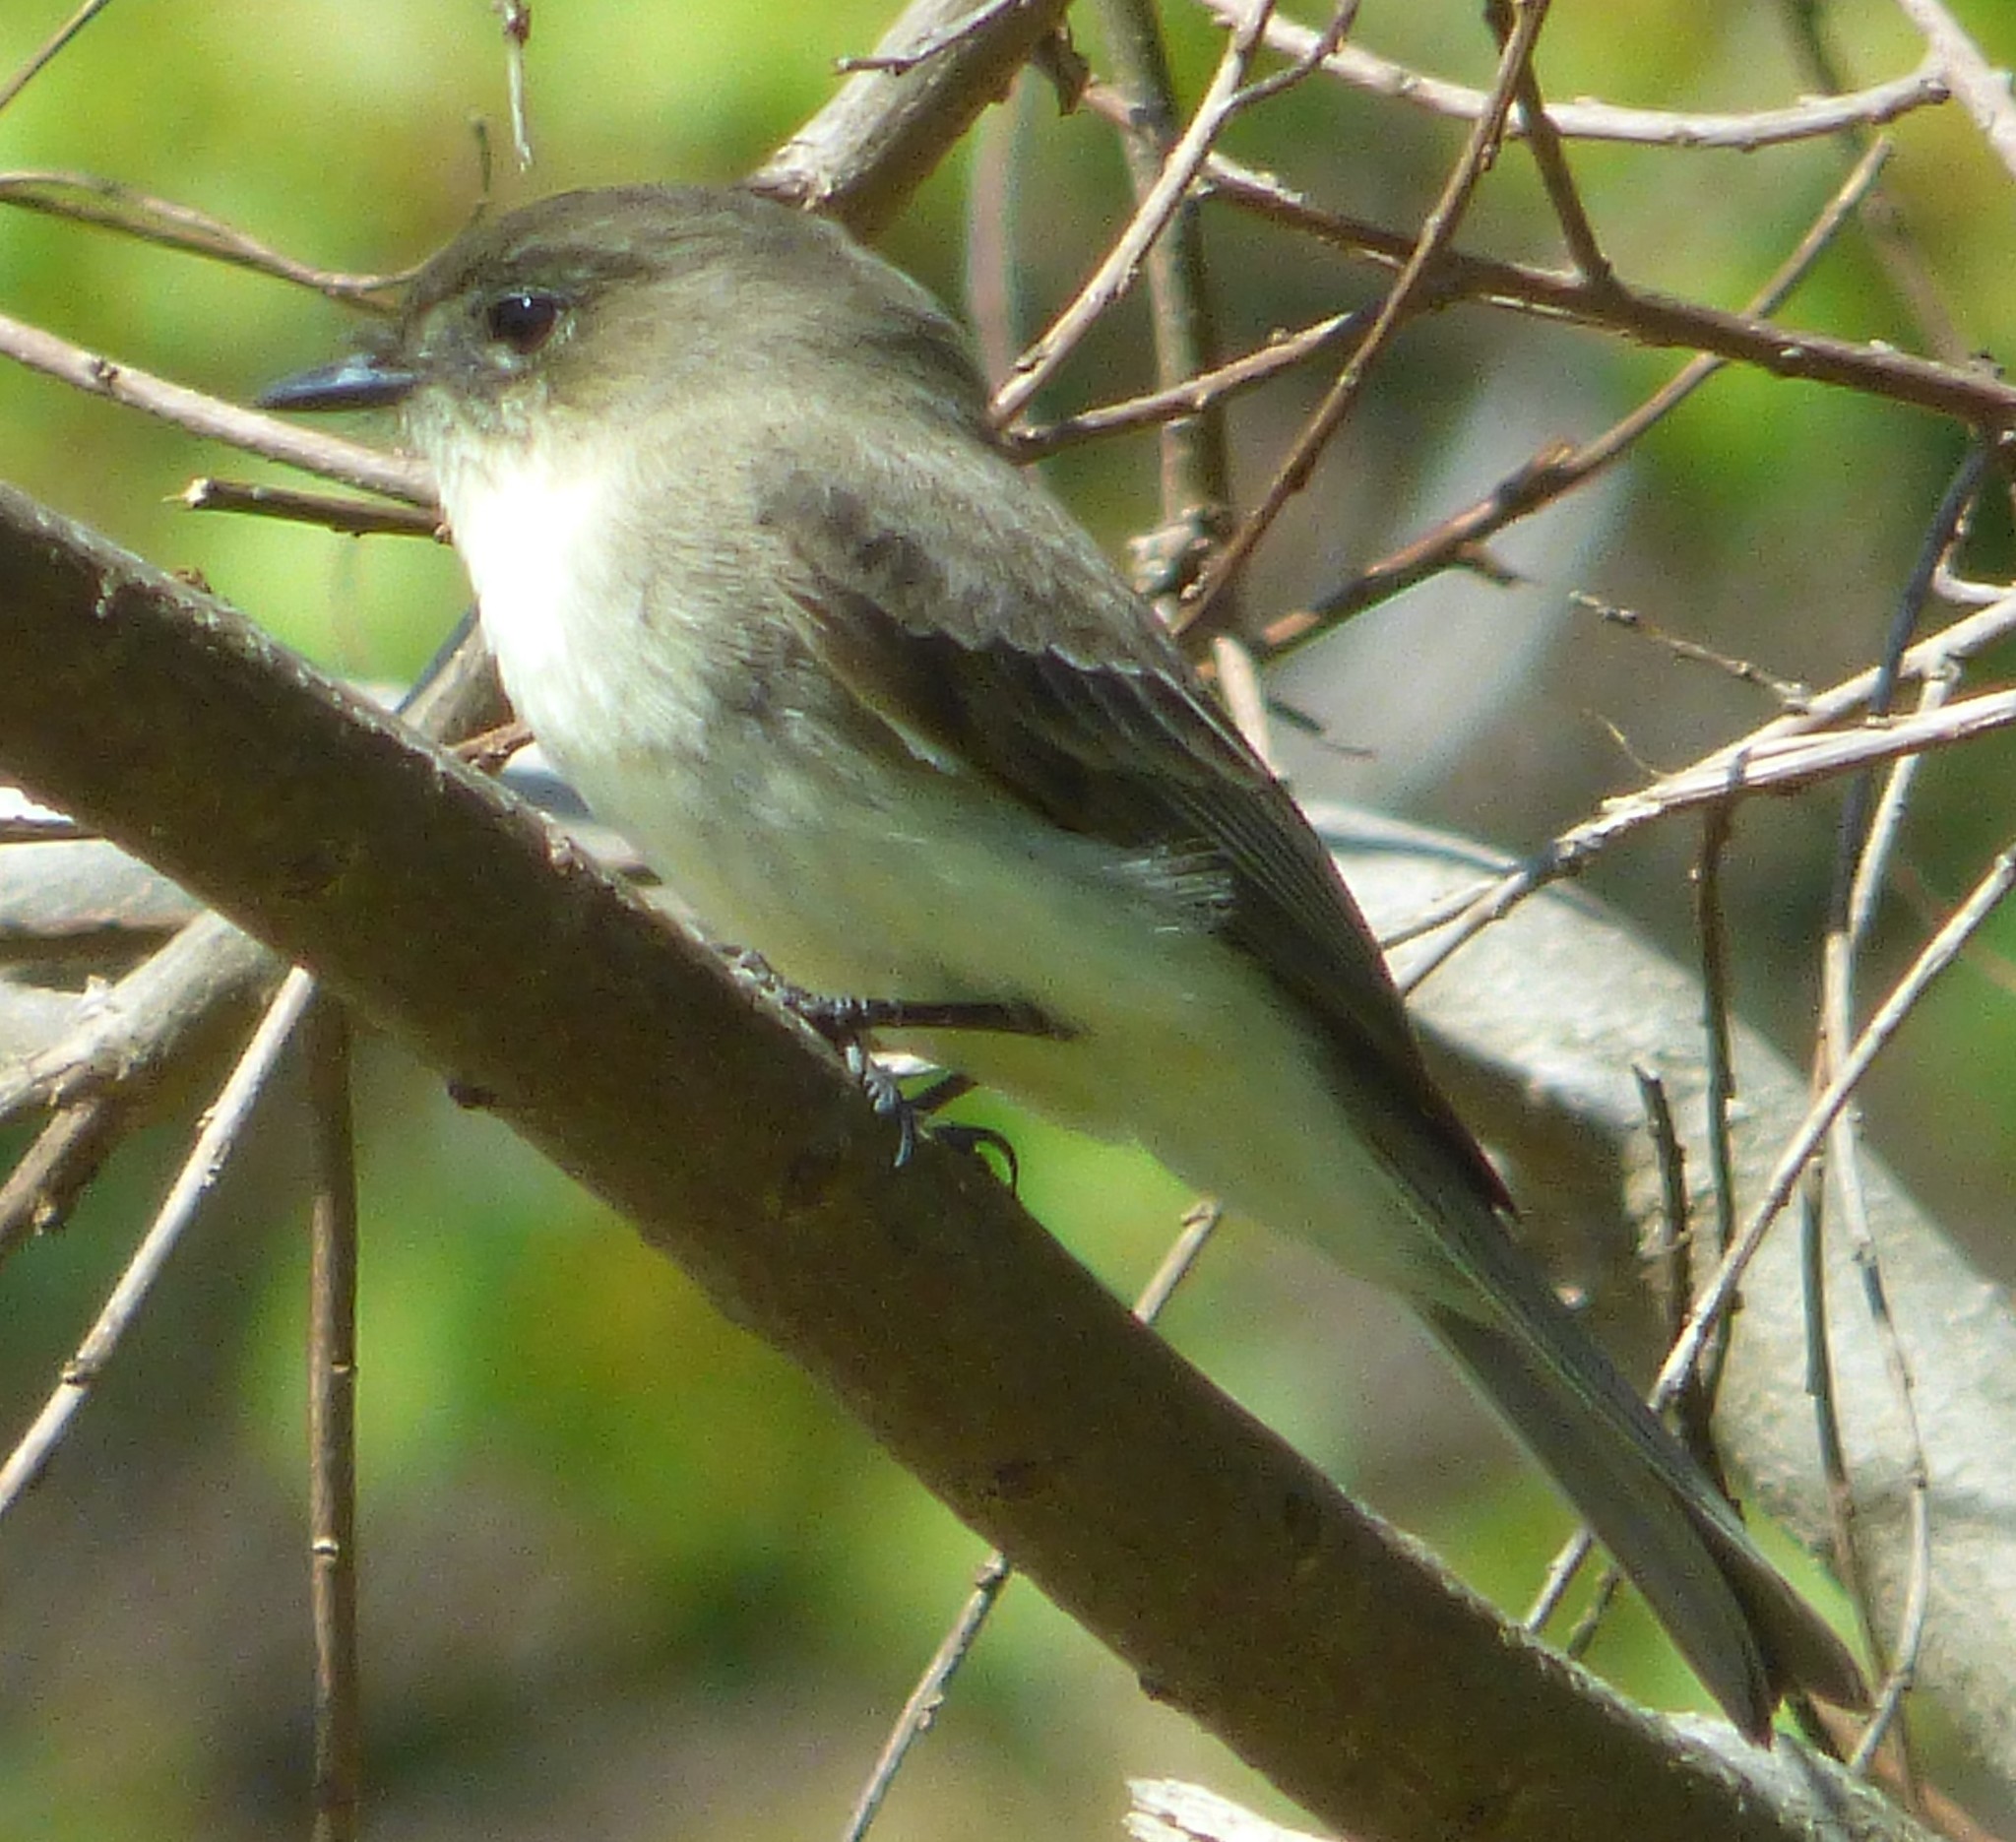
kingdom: Animalia
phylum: Chordata
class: Aves
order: Passeriformes
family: Tyrannidae
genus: Sayornis
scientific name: Sayornis phoebe
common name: Eastern phoebe
